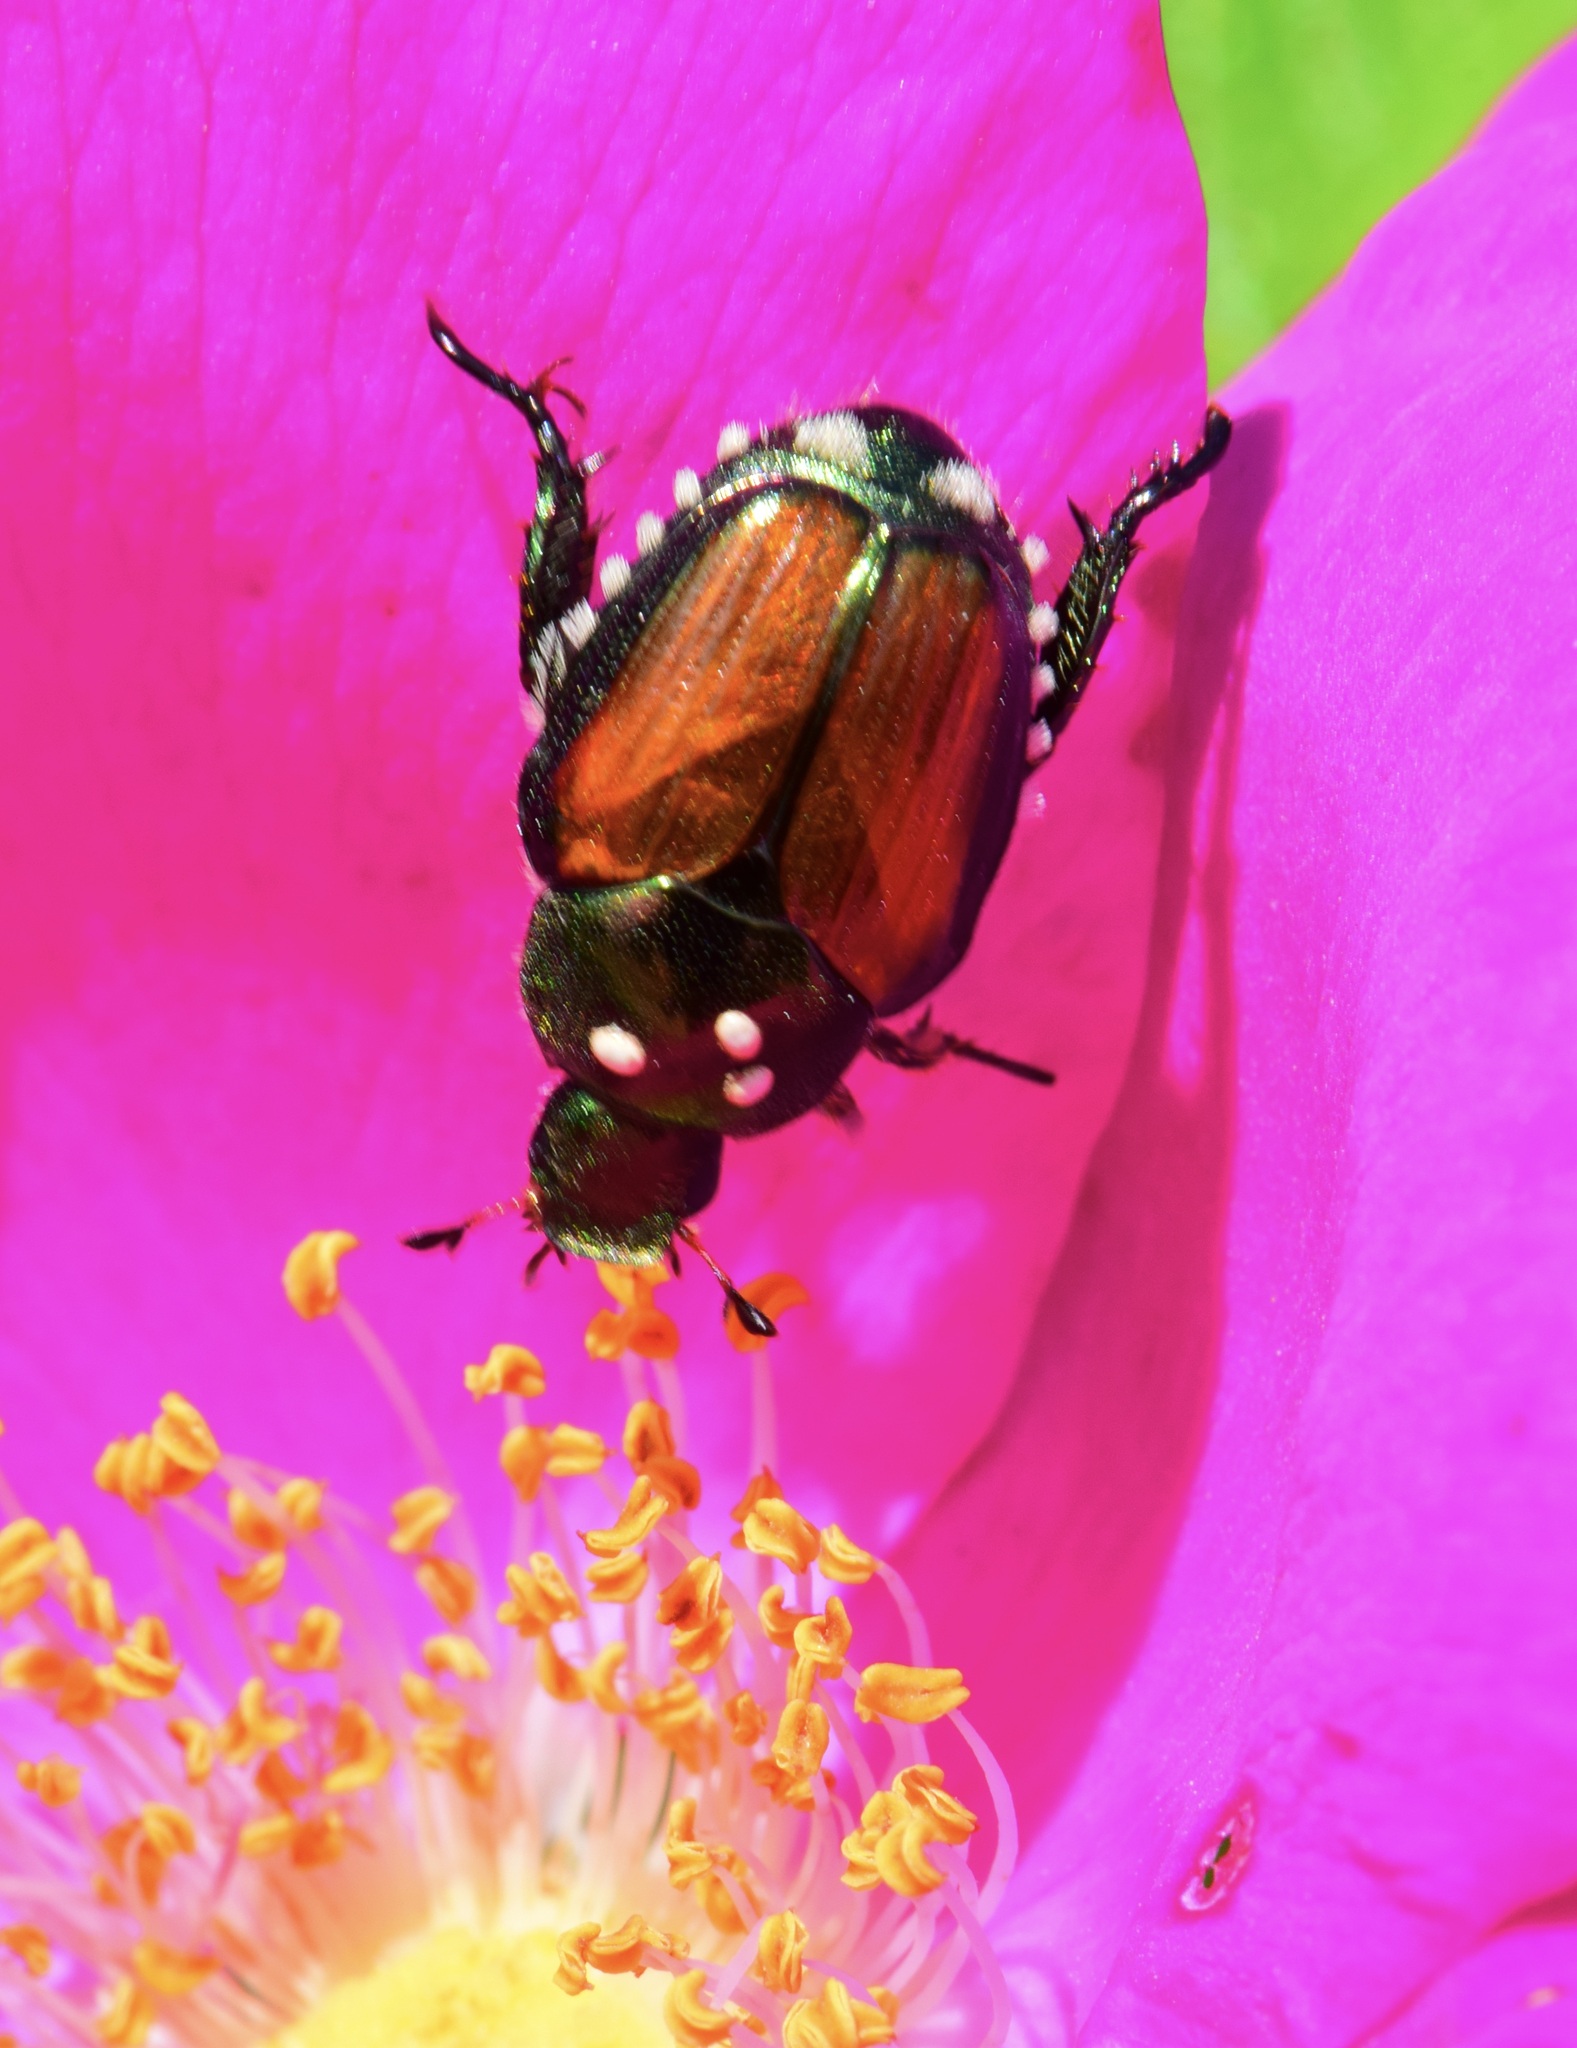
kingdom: Animalia
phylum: Arthropoda
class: Insecta
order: Coleoptera
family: Scarabaeidae
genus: Popillia
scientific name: Popillia japonica
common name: Japanese beetle
